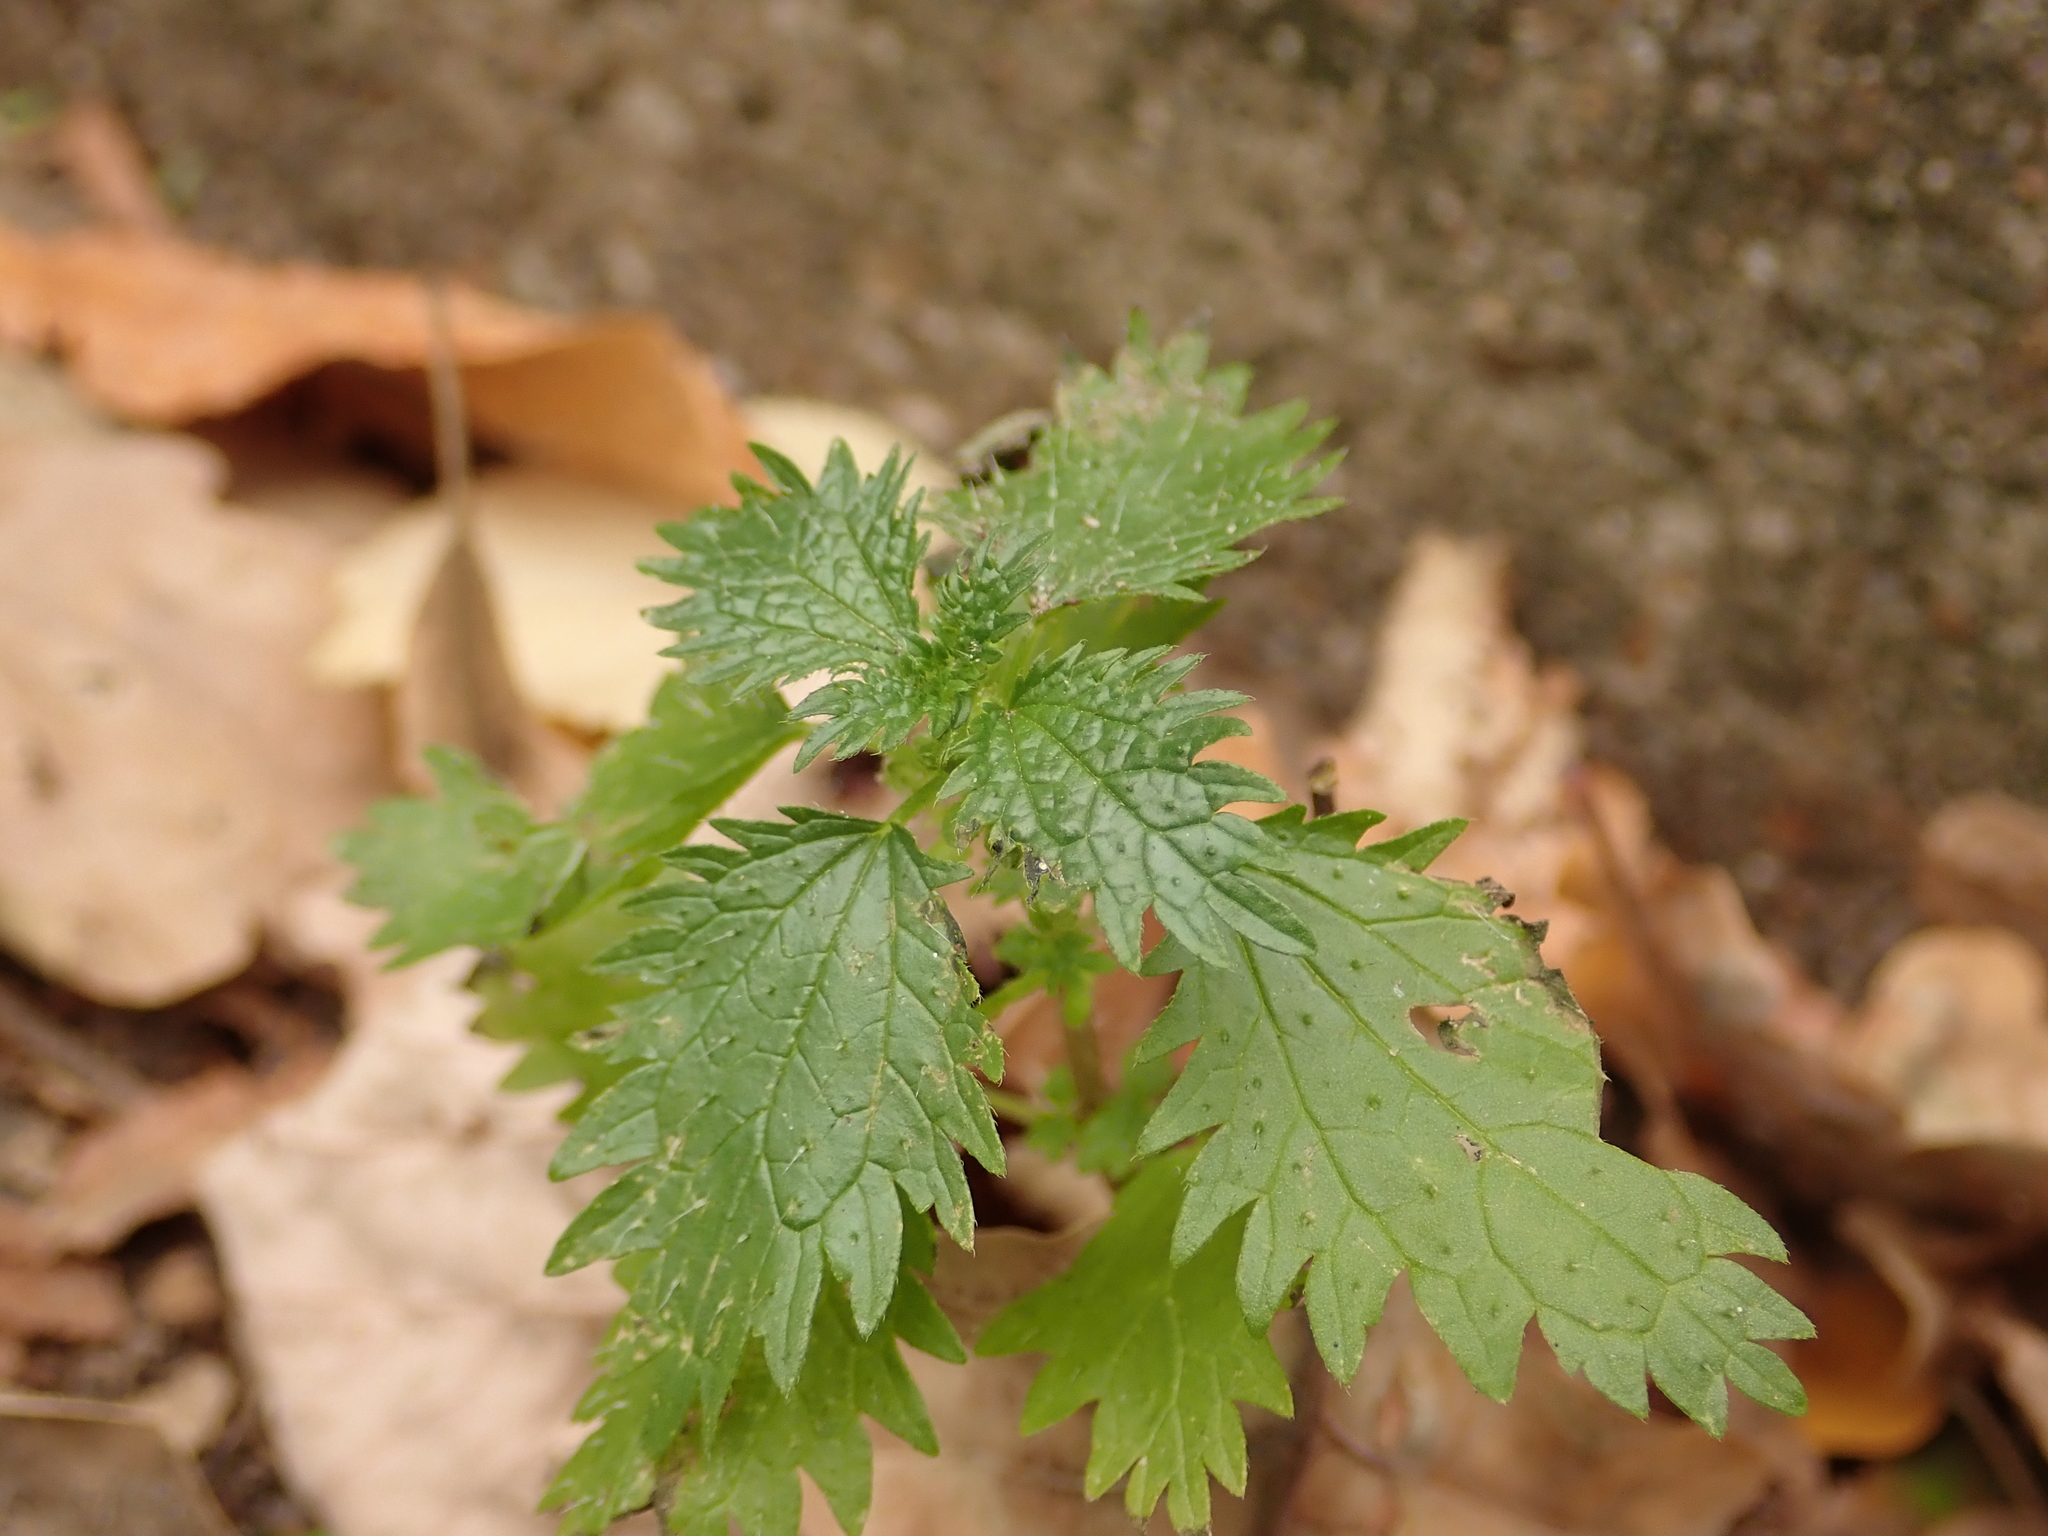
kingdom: Plantae
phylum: Tracheophyta
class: Magnoliopsida
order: Rosales
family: Urticaceae
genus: Urtica
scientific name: Urtica urens
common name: Dwarf nettle
